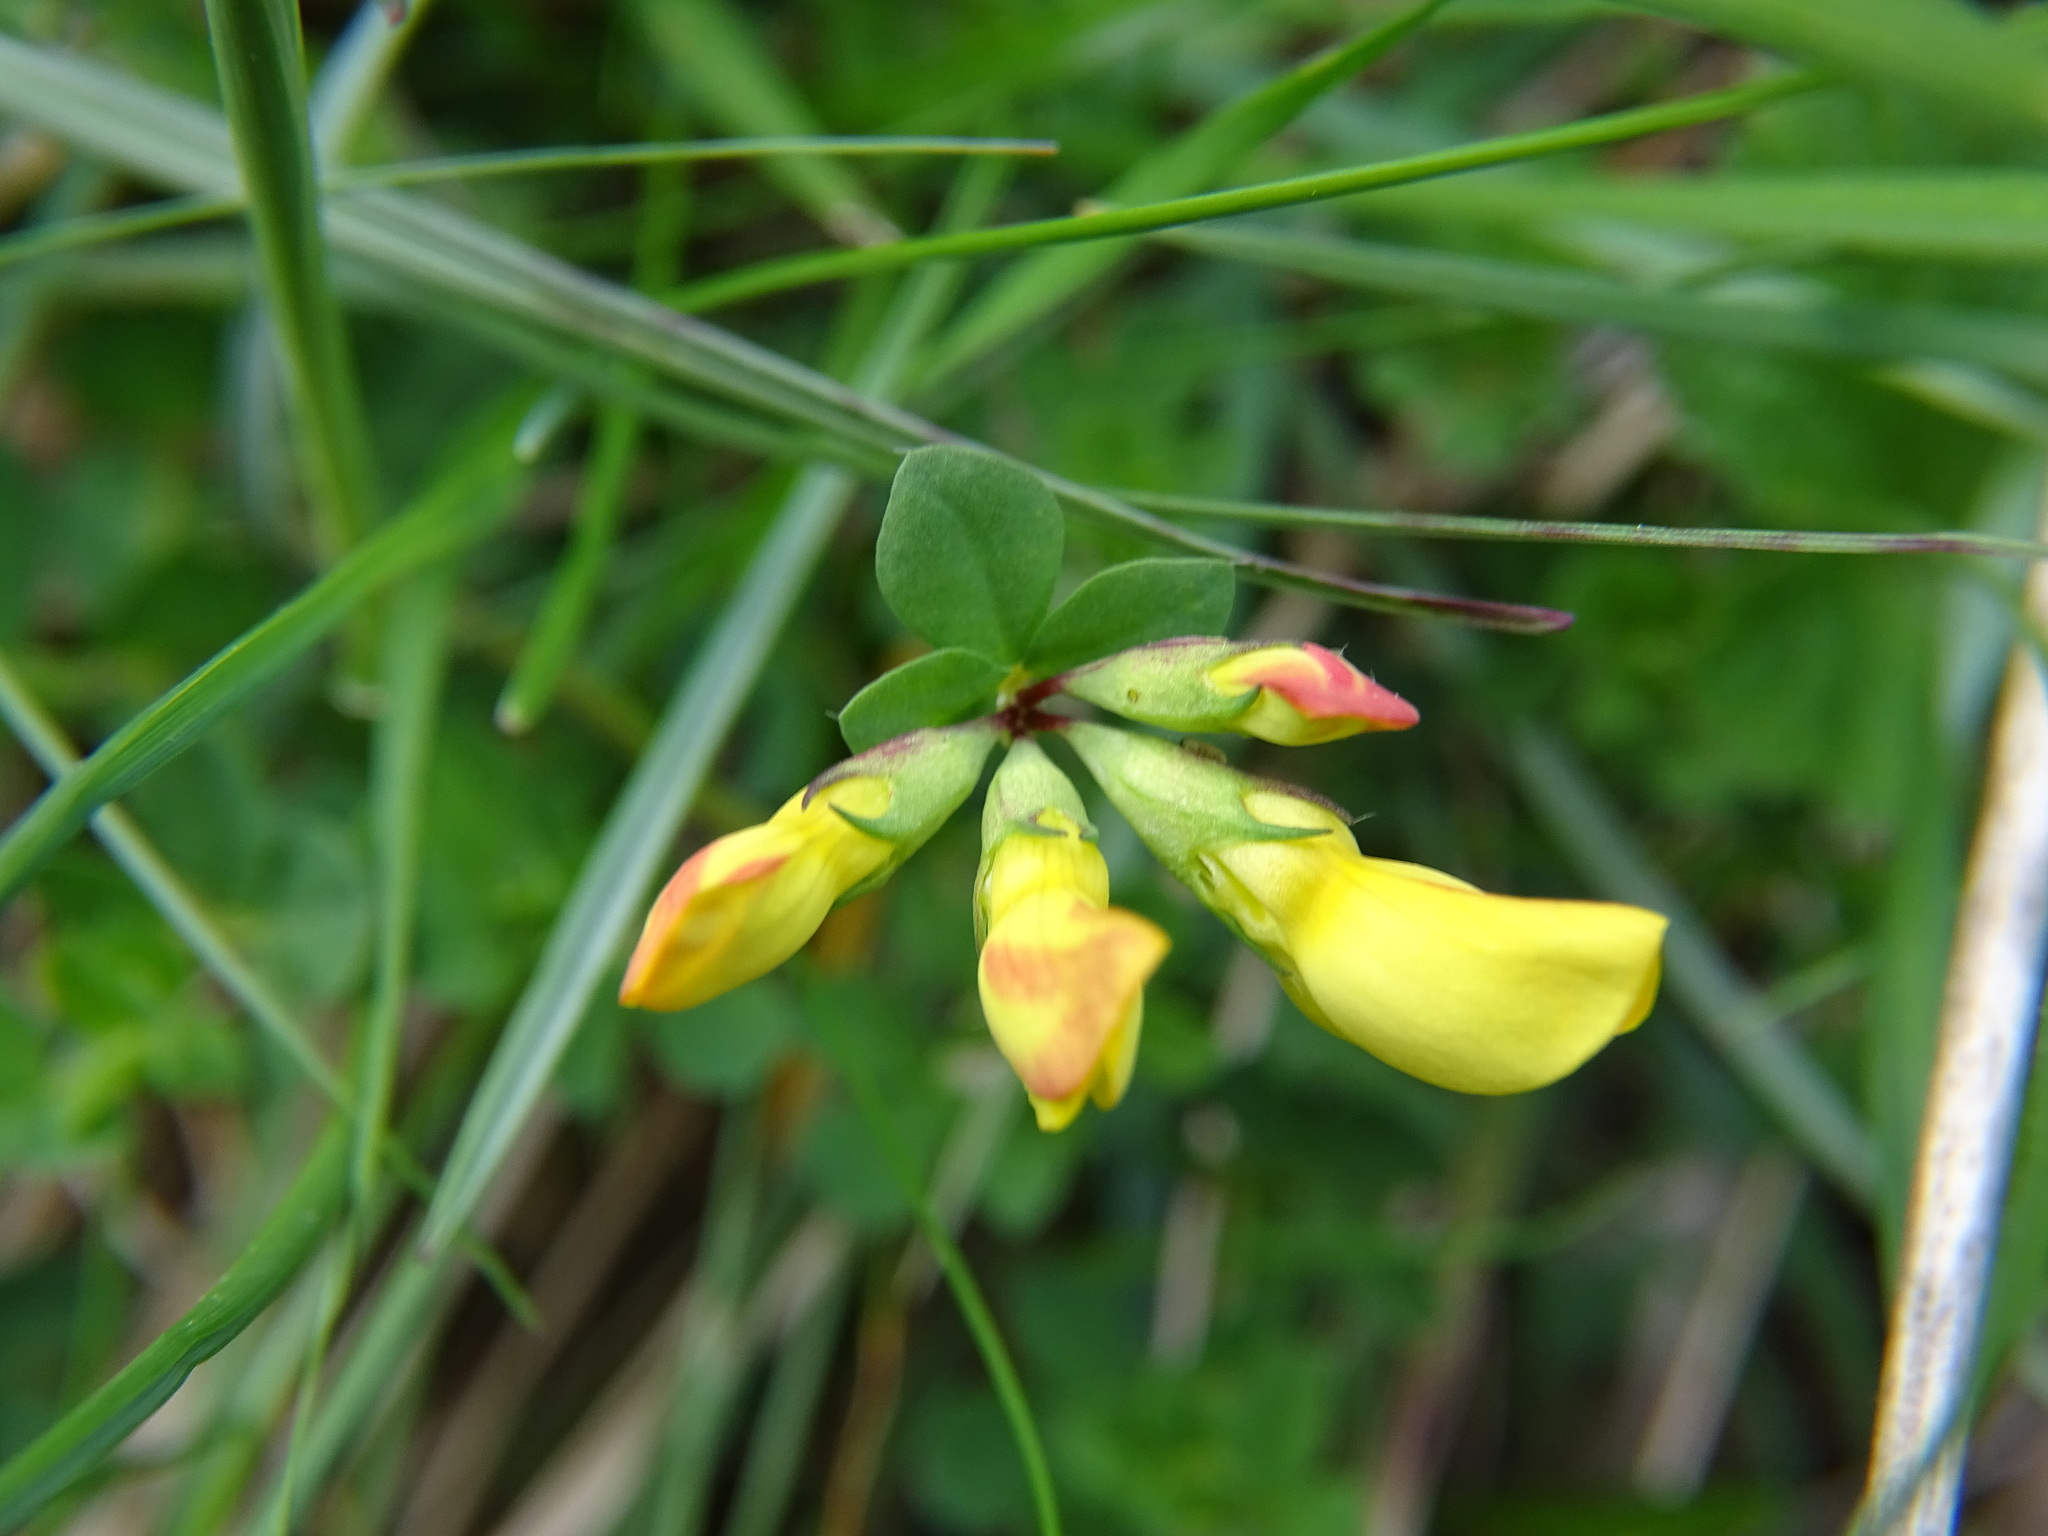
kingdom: Plantae
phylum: Tracheophyta
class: Magnoliopsida
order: Fabales
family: Fabaceae
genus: Lotus
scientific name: Lotus corniculatus
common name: Common bird's-foot-trefoil
